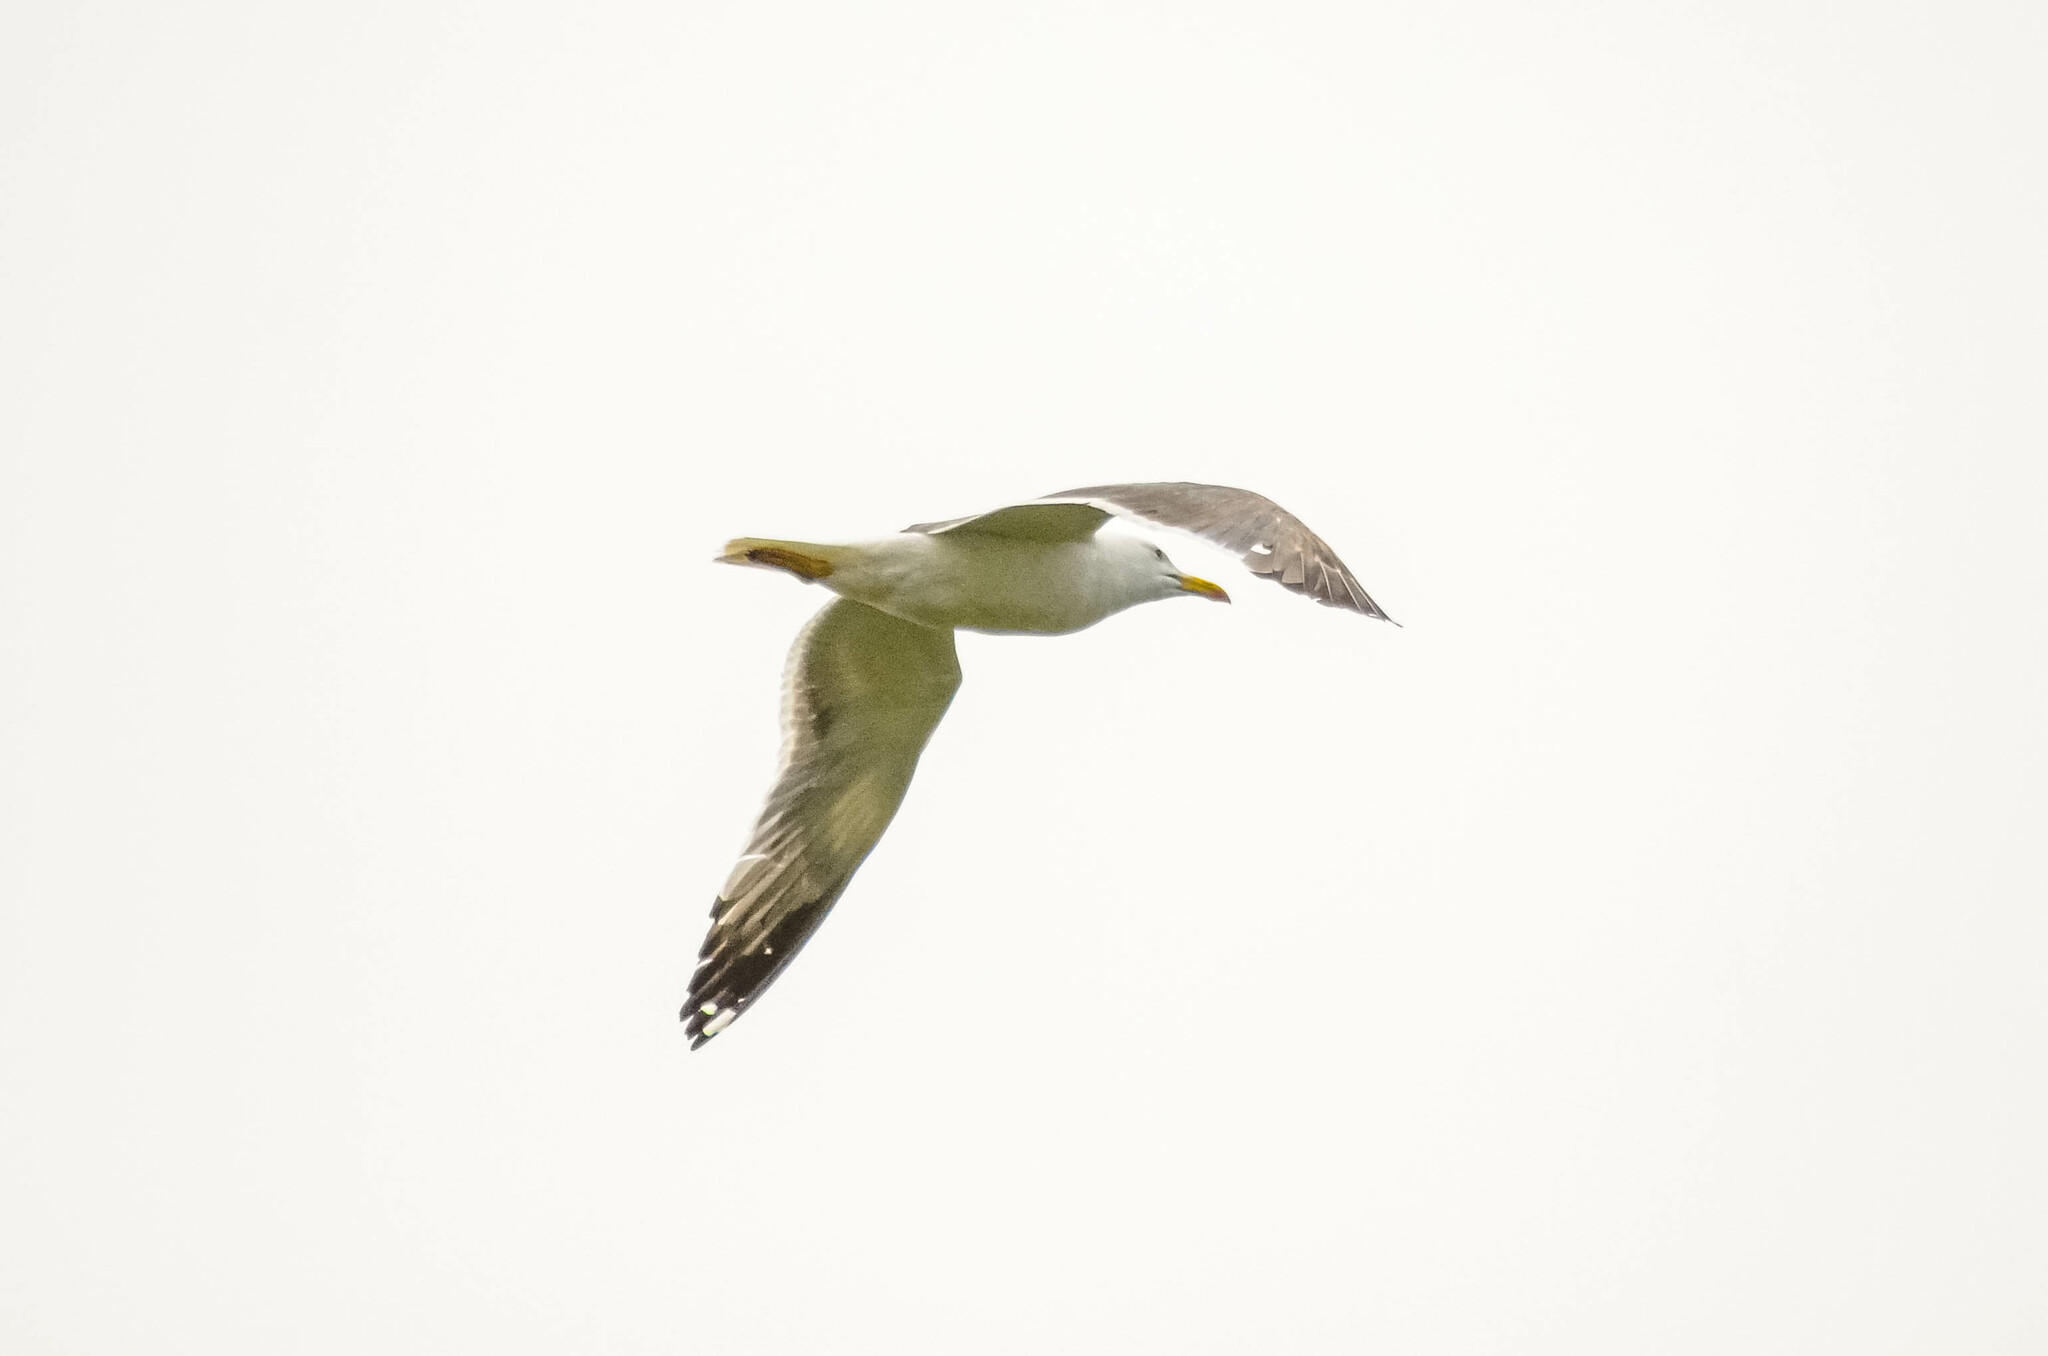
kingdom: Animalia
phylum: Chordata
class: Aves
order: Charadriiformes
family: Laridae
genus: Larus
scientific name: Larus fuscus
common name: Lesser black-backed gull
